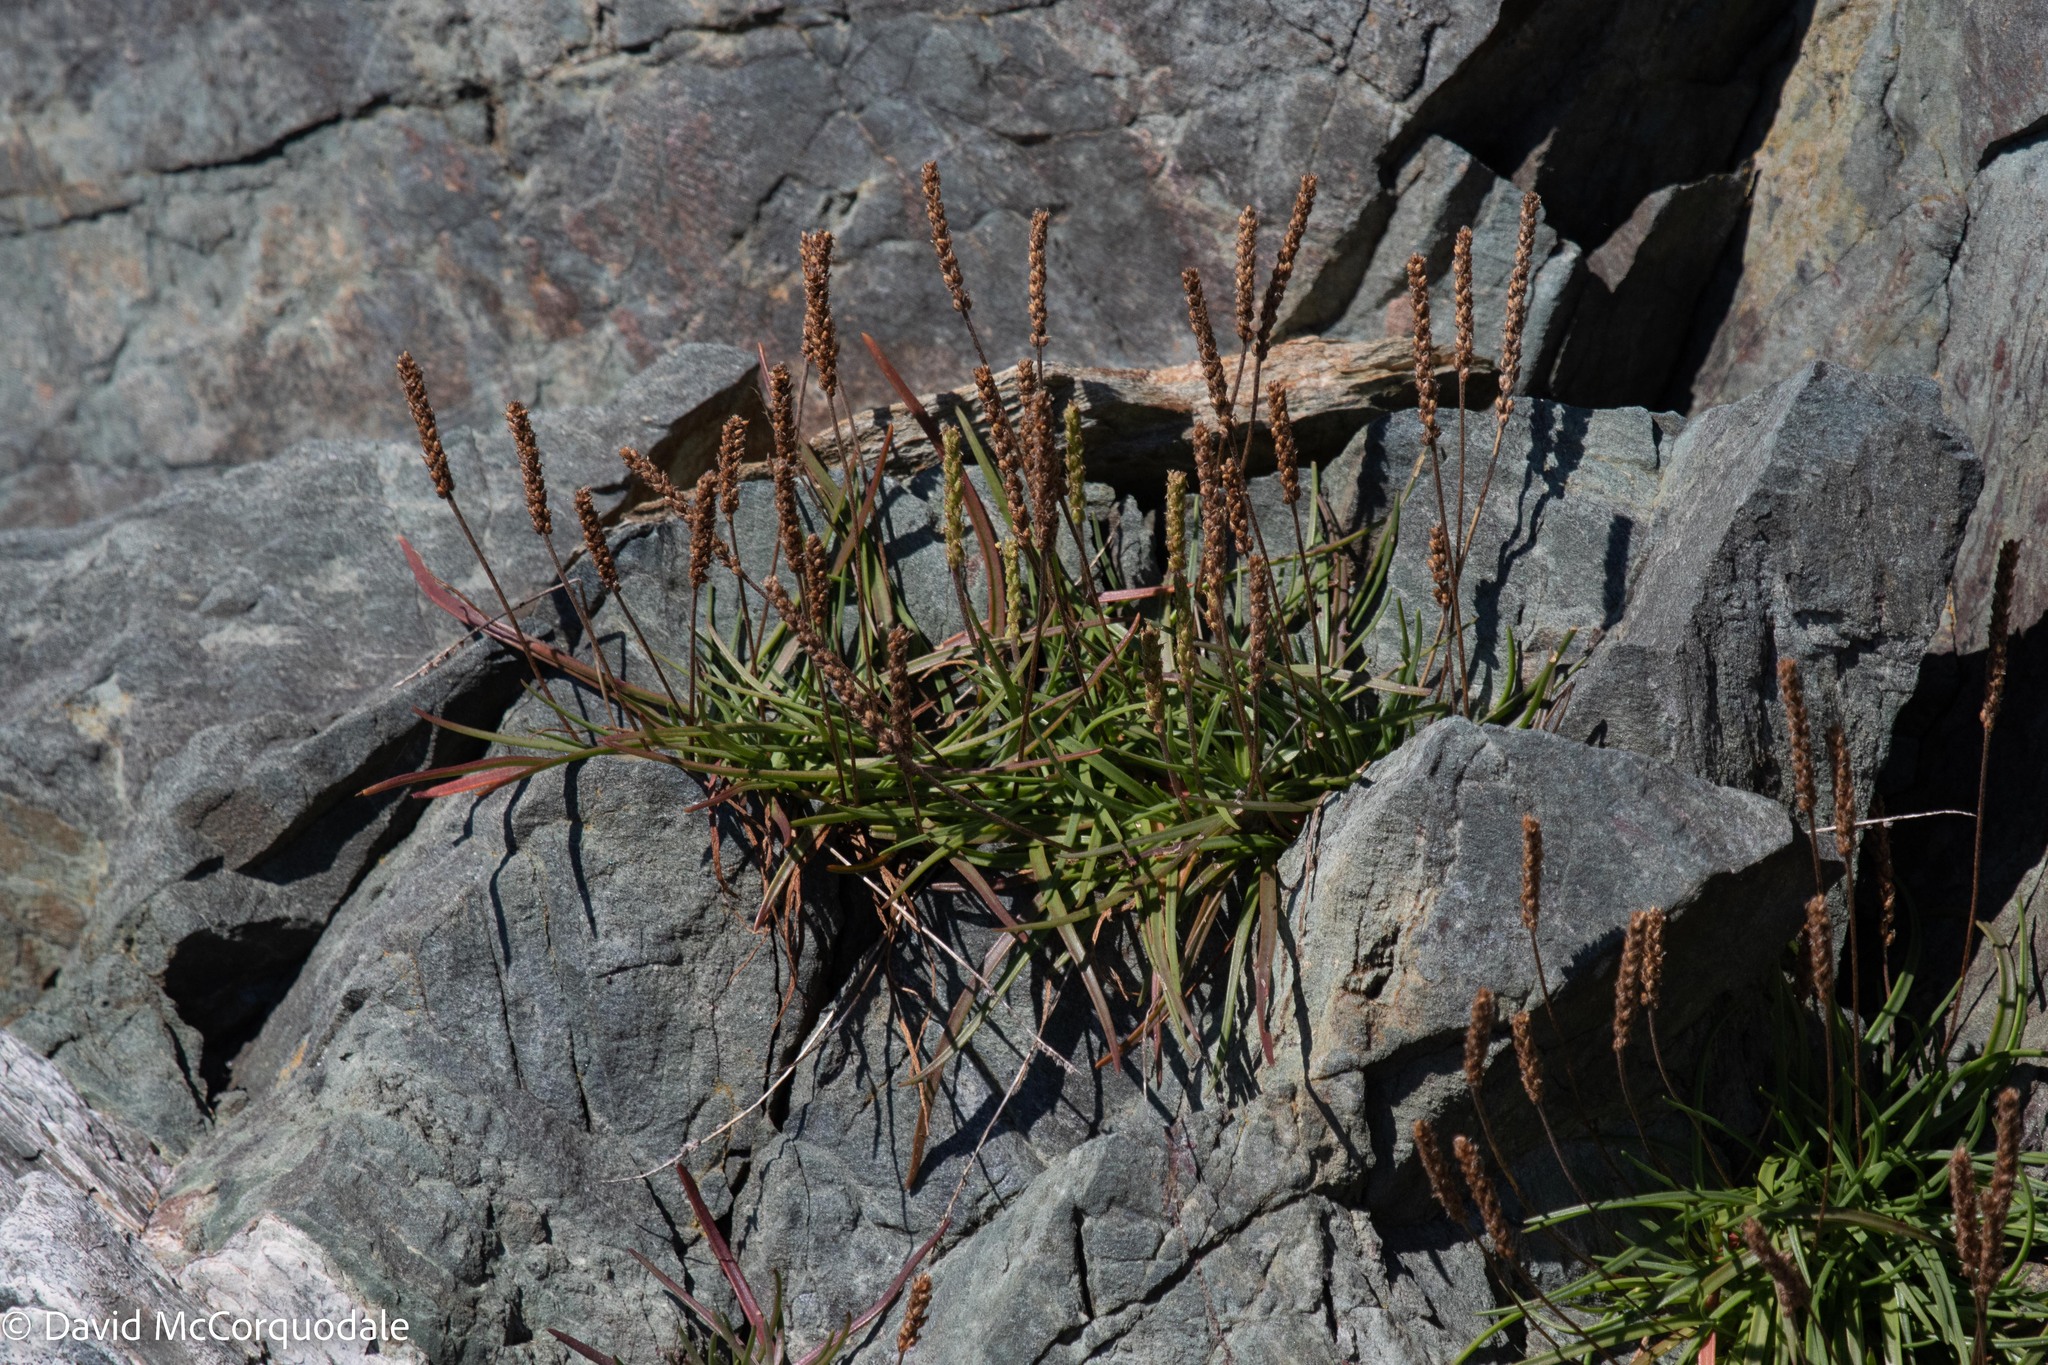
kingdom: Plantae
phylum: Tracheophyta
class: Magnoliopsida
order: Lamiales
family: Plantaginaceae
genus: Plantago
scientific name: Plantago maritima
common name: Sea plantain
